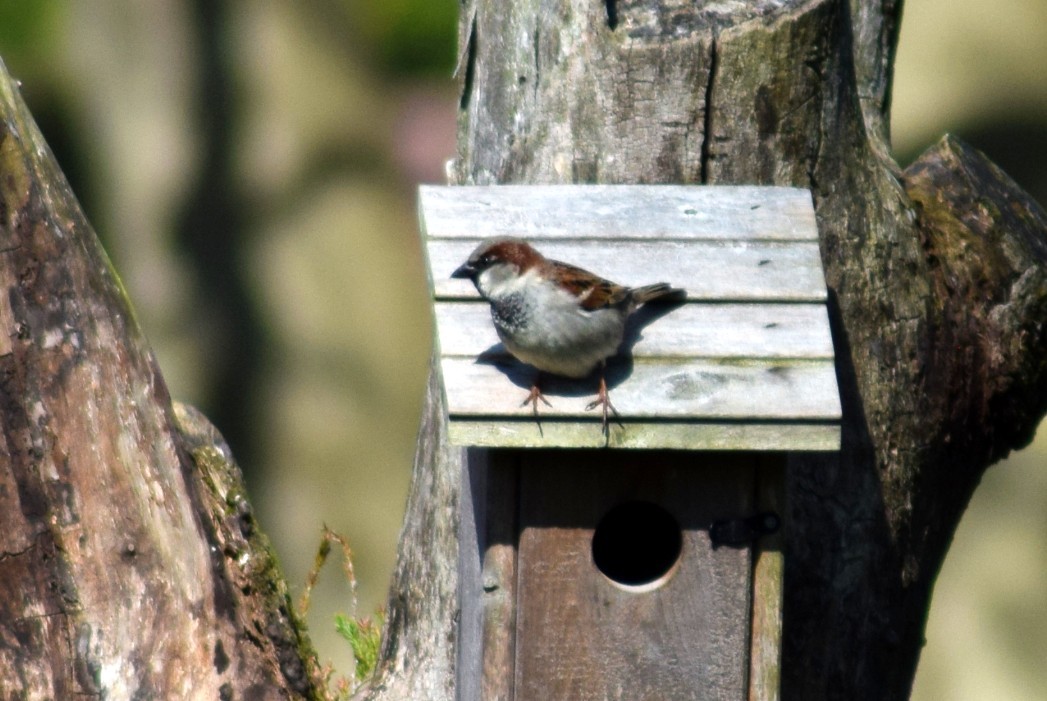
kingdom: Animalia
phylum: Chordata
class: Aves
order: Passeriformes
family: Passeridae
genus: Passer
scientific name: Passer domesticus
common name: House sparrow
